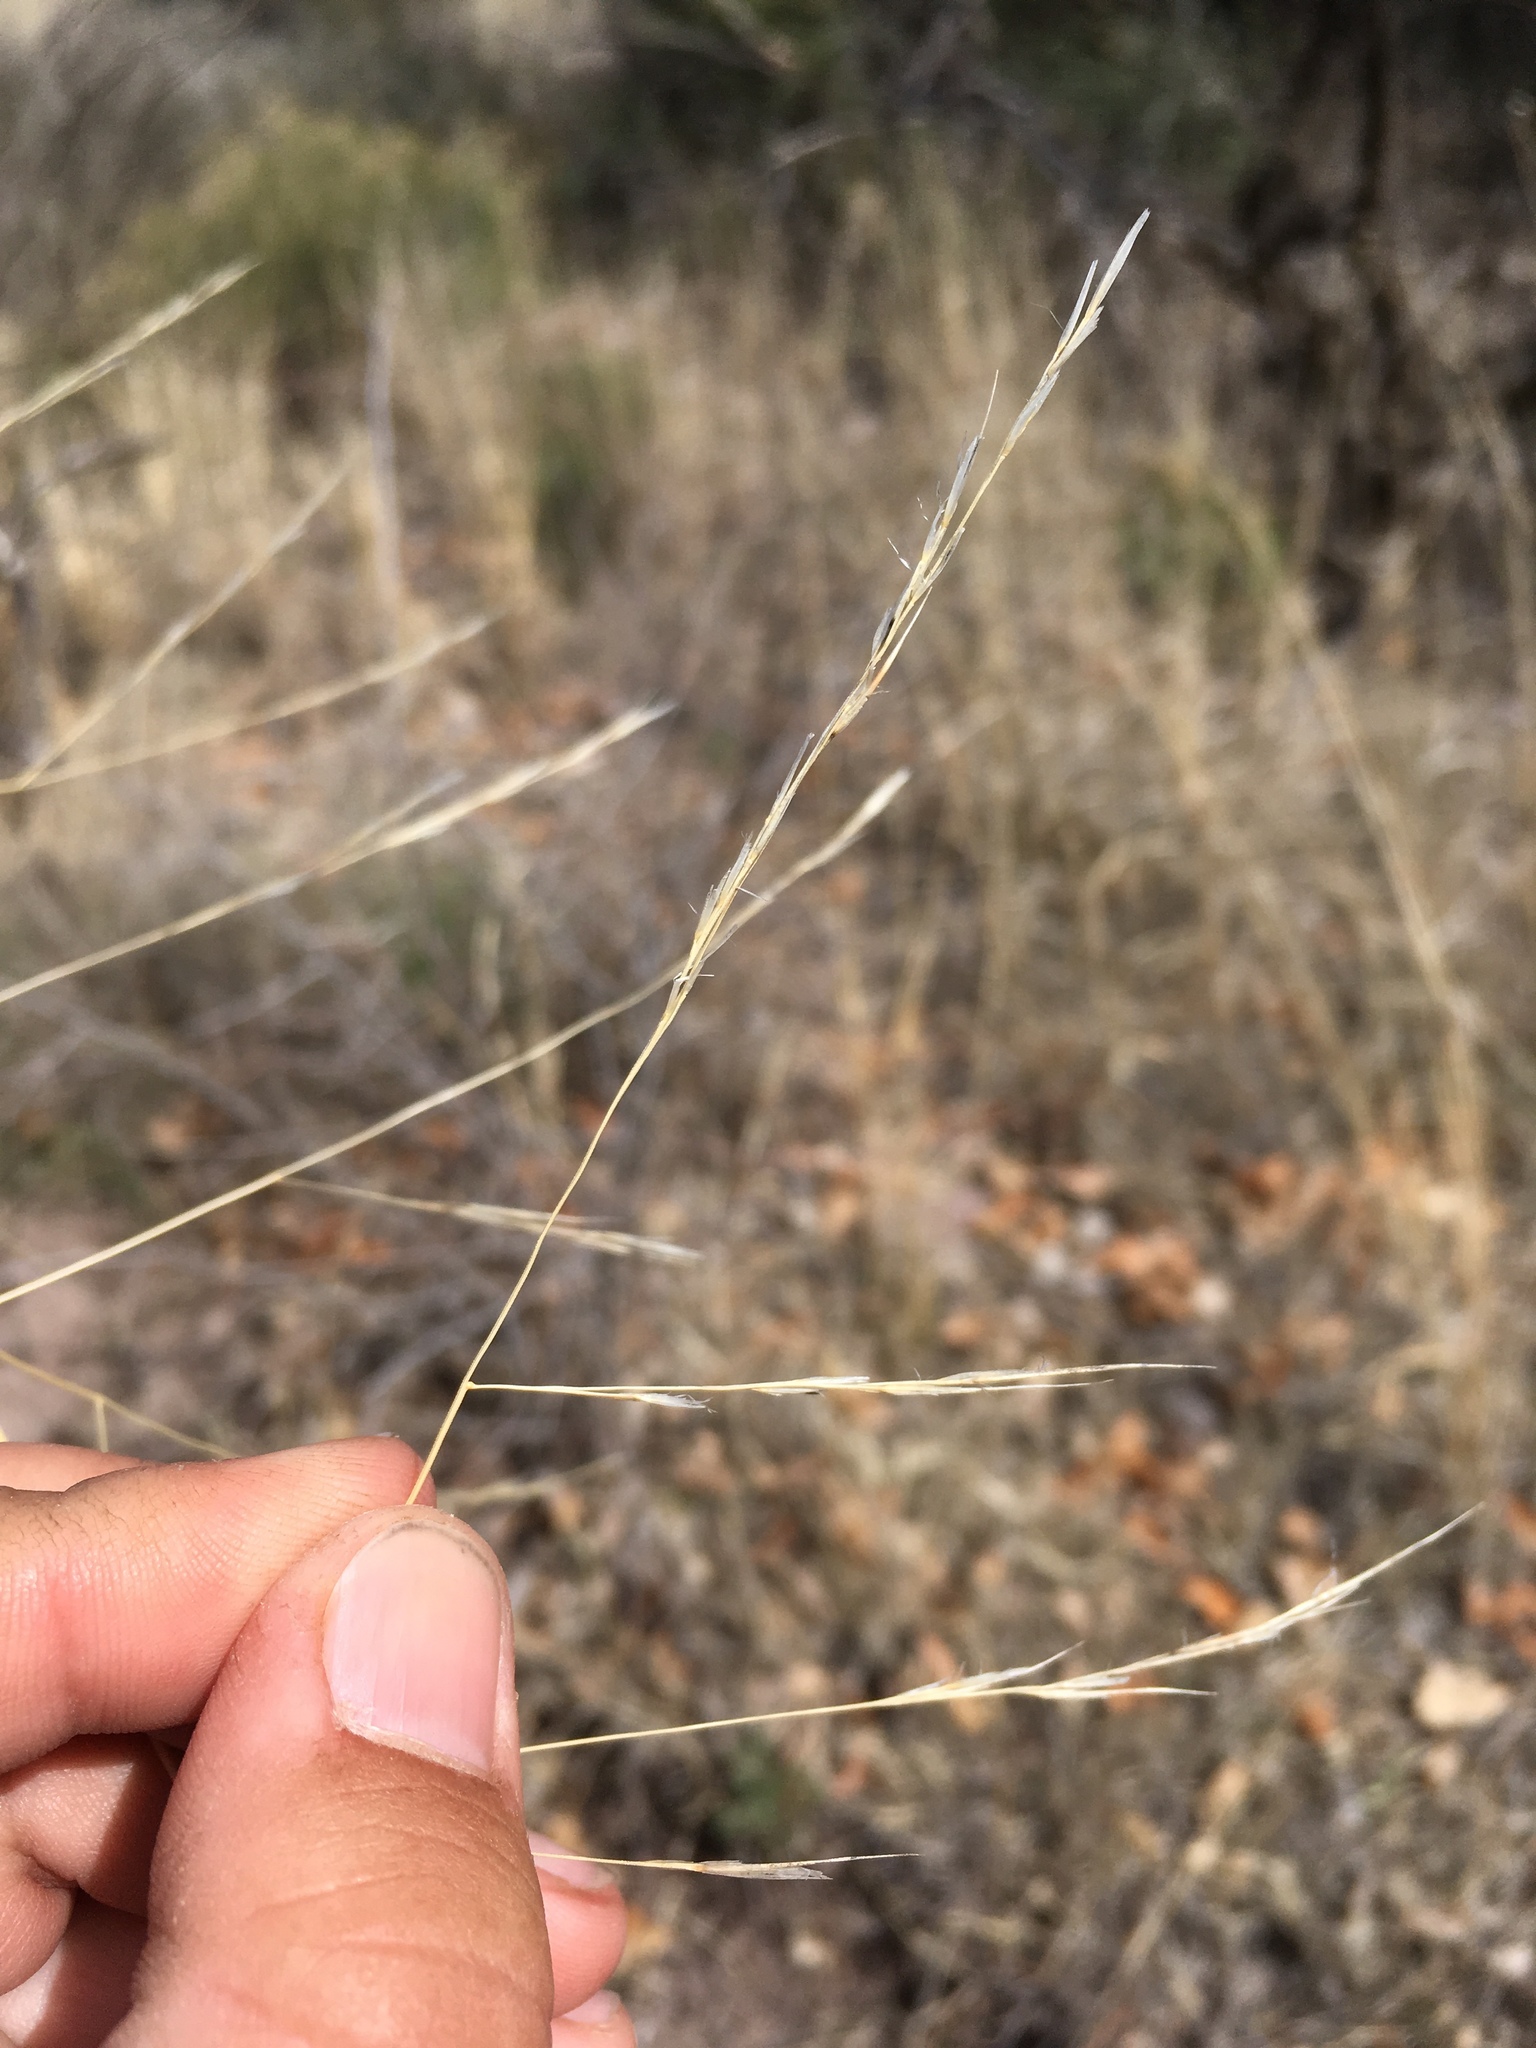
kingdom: Plantae
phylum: Tracheophyta
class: Liliopsida
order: Poales
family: Poaceae
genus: Aristida
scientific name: Aristida ternipes
